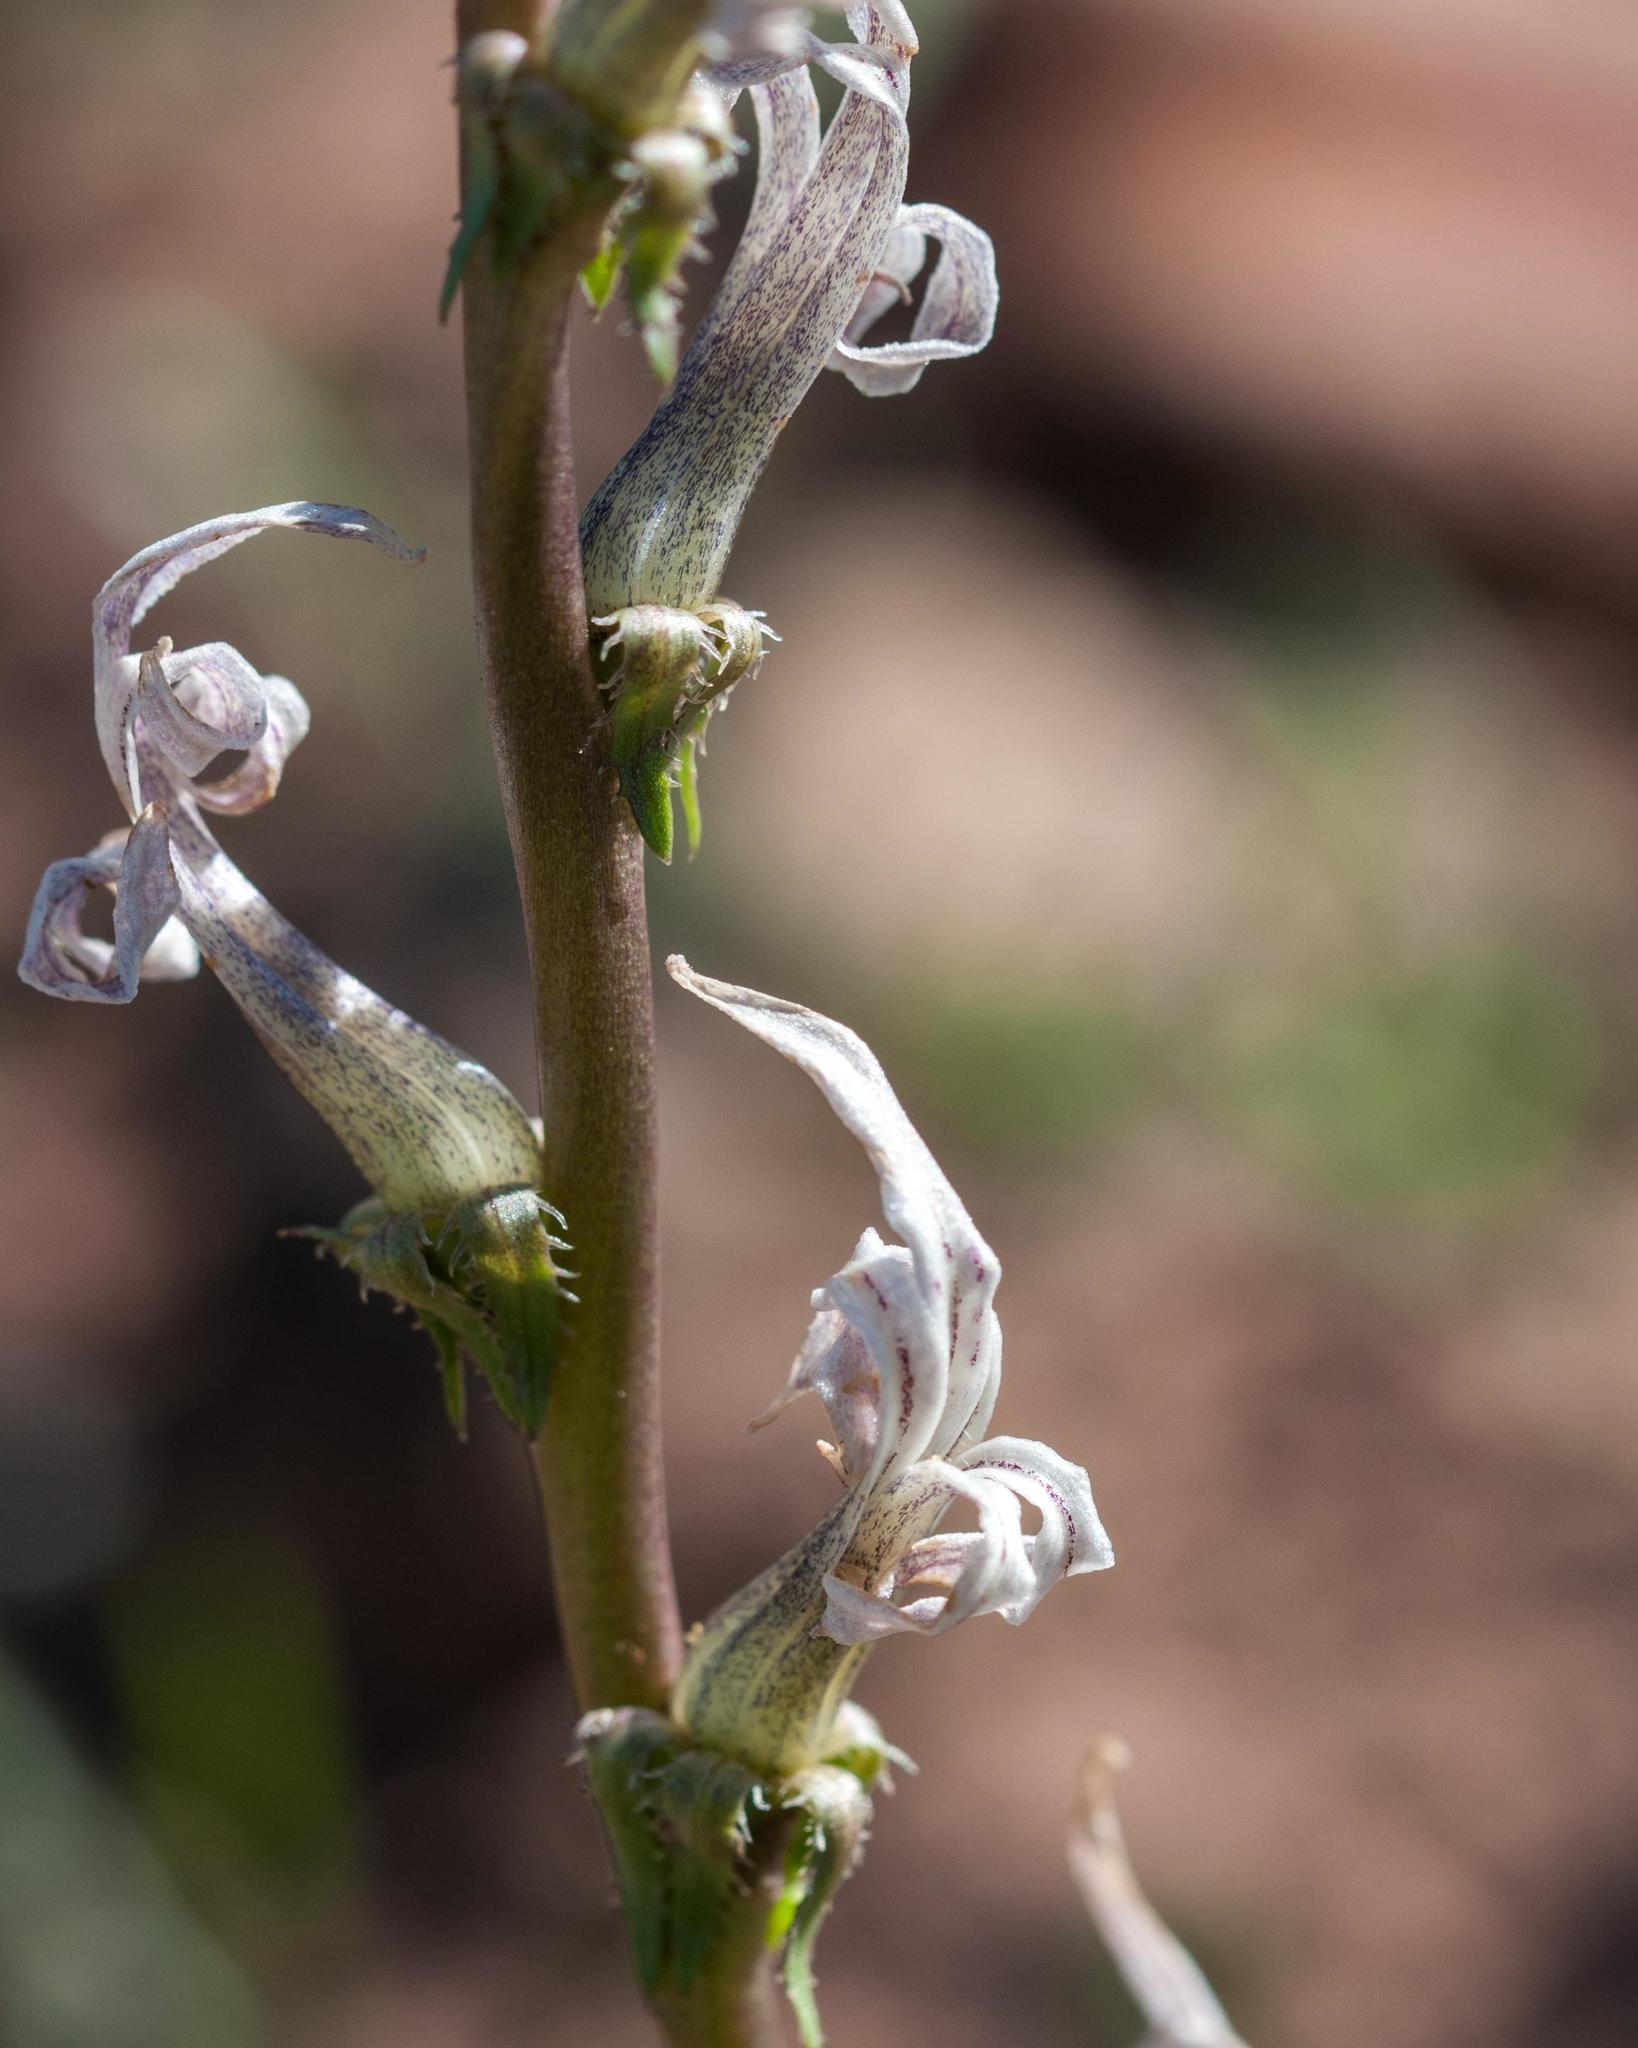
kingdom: Plantae
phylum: Tracheophyta
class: Magnoliopsida
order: Asterales
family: Campanulaceae
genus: Cyphia
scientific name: Cyphia phyteuma
